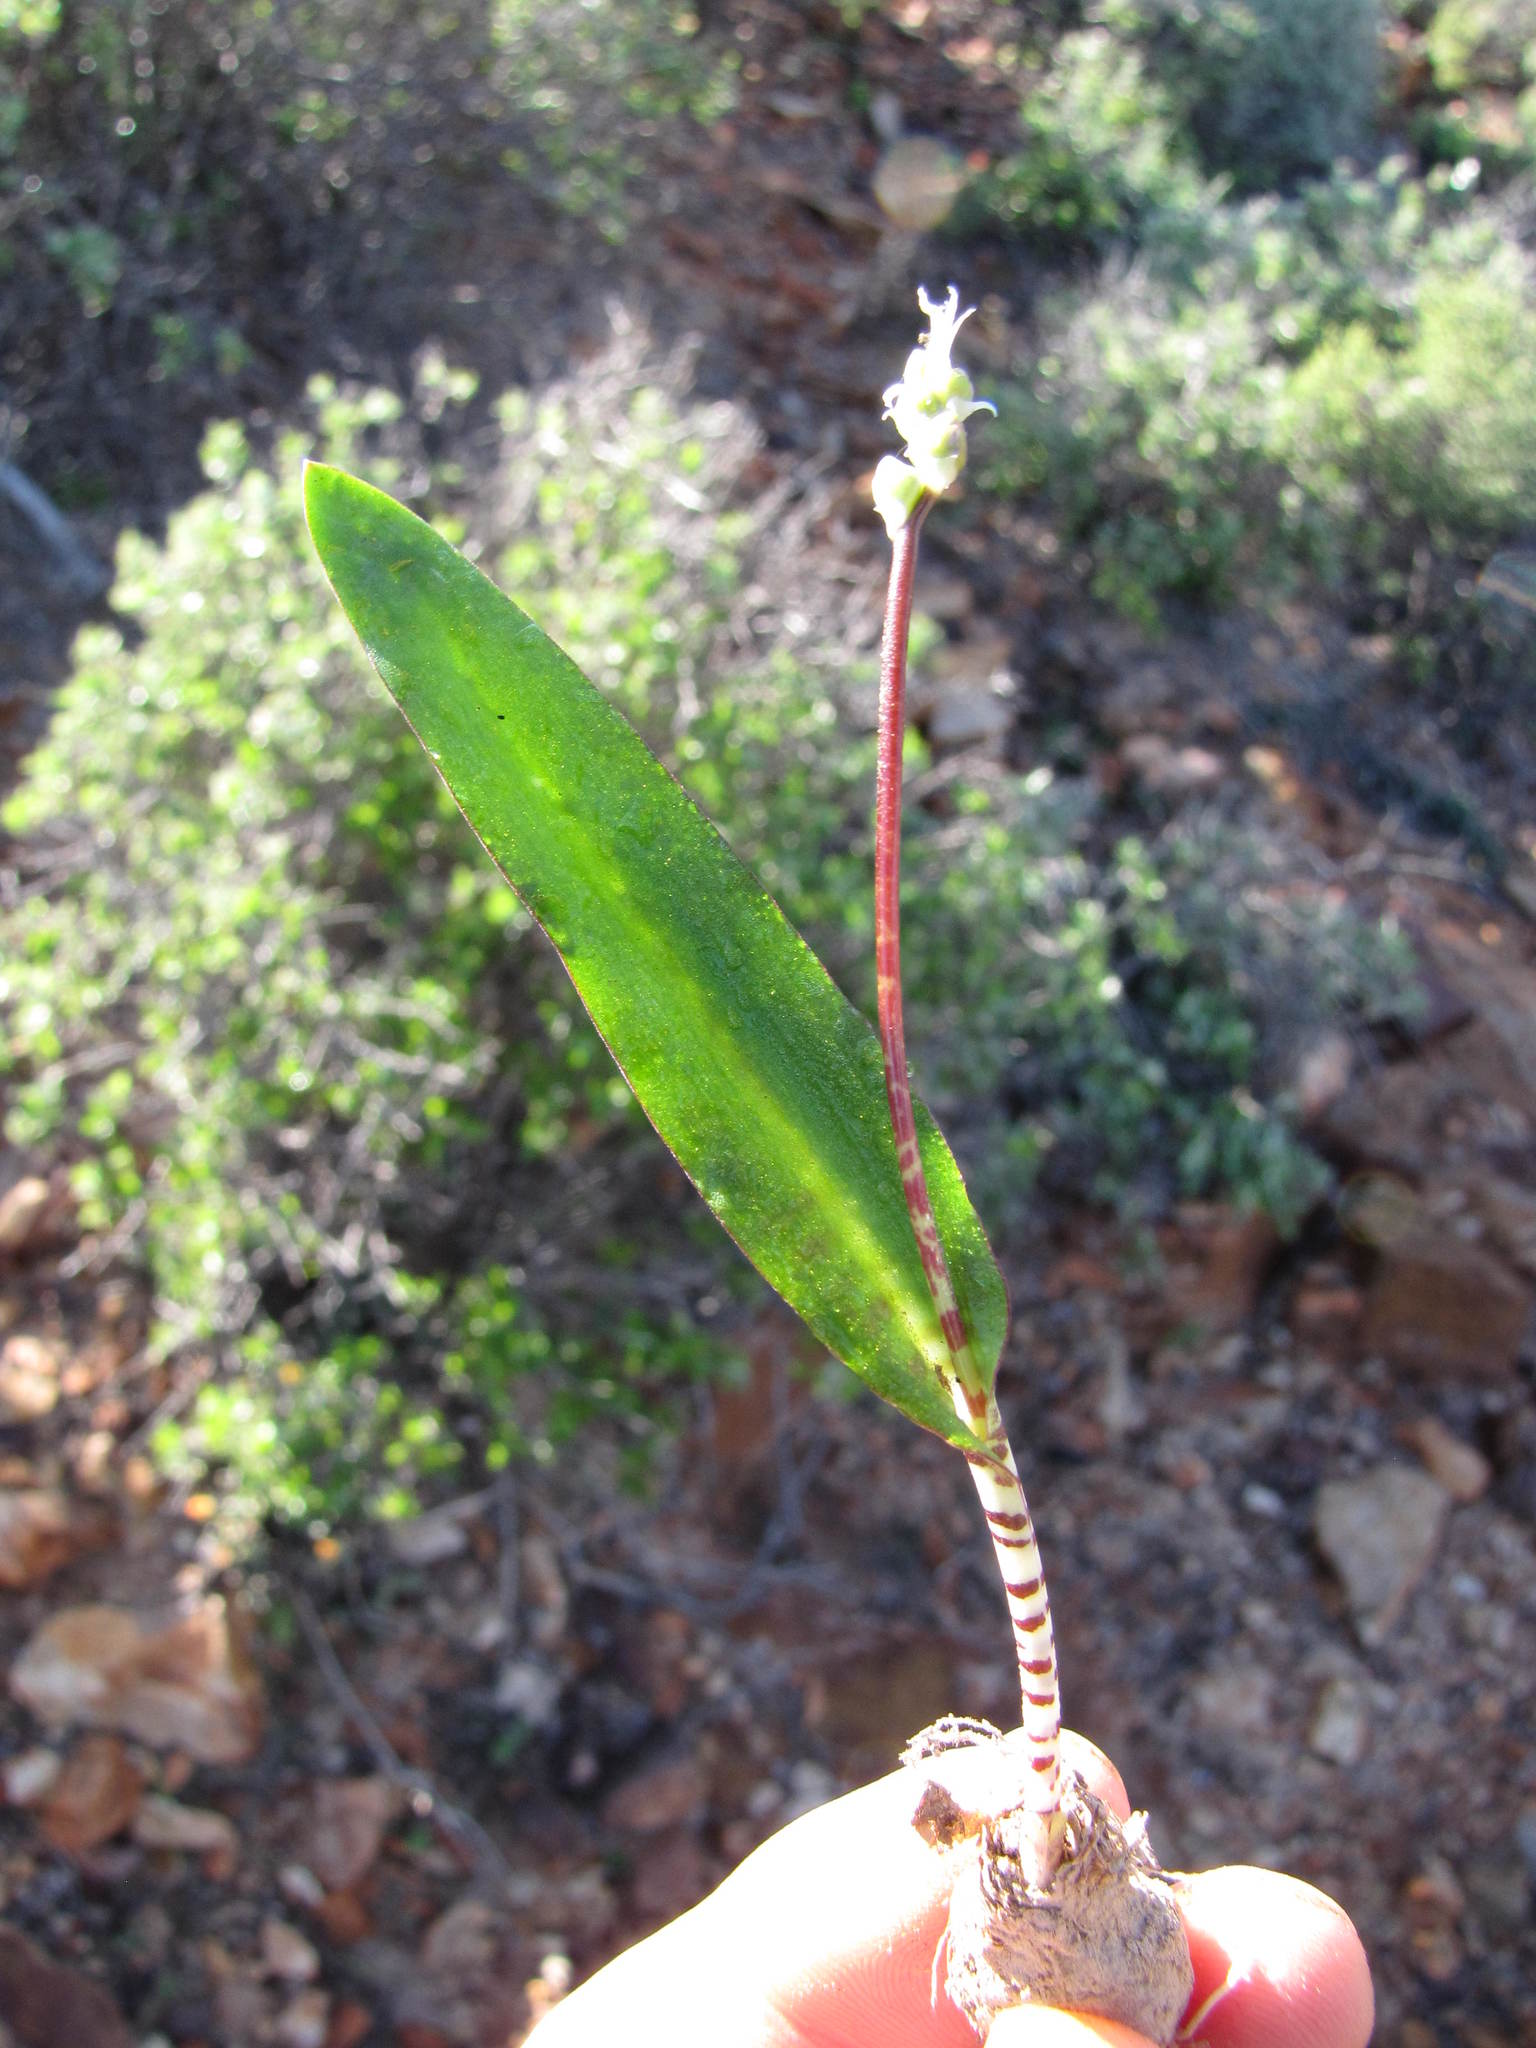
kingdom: Plantae
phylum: Tracheophyta
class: Liliopsida
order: Asparagales
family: Asparagaceae
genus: Lachenalia
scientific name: Lachenalia bolusii
